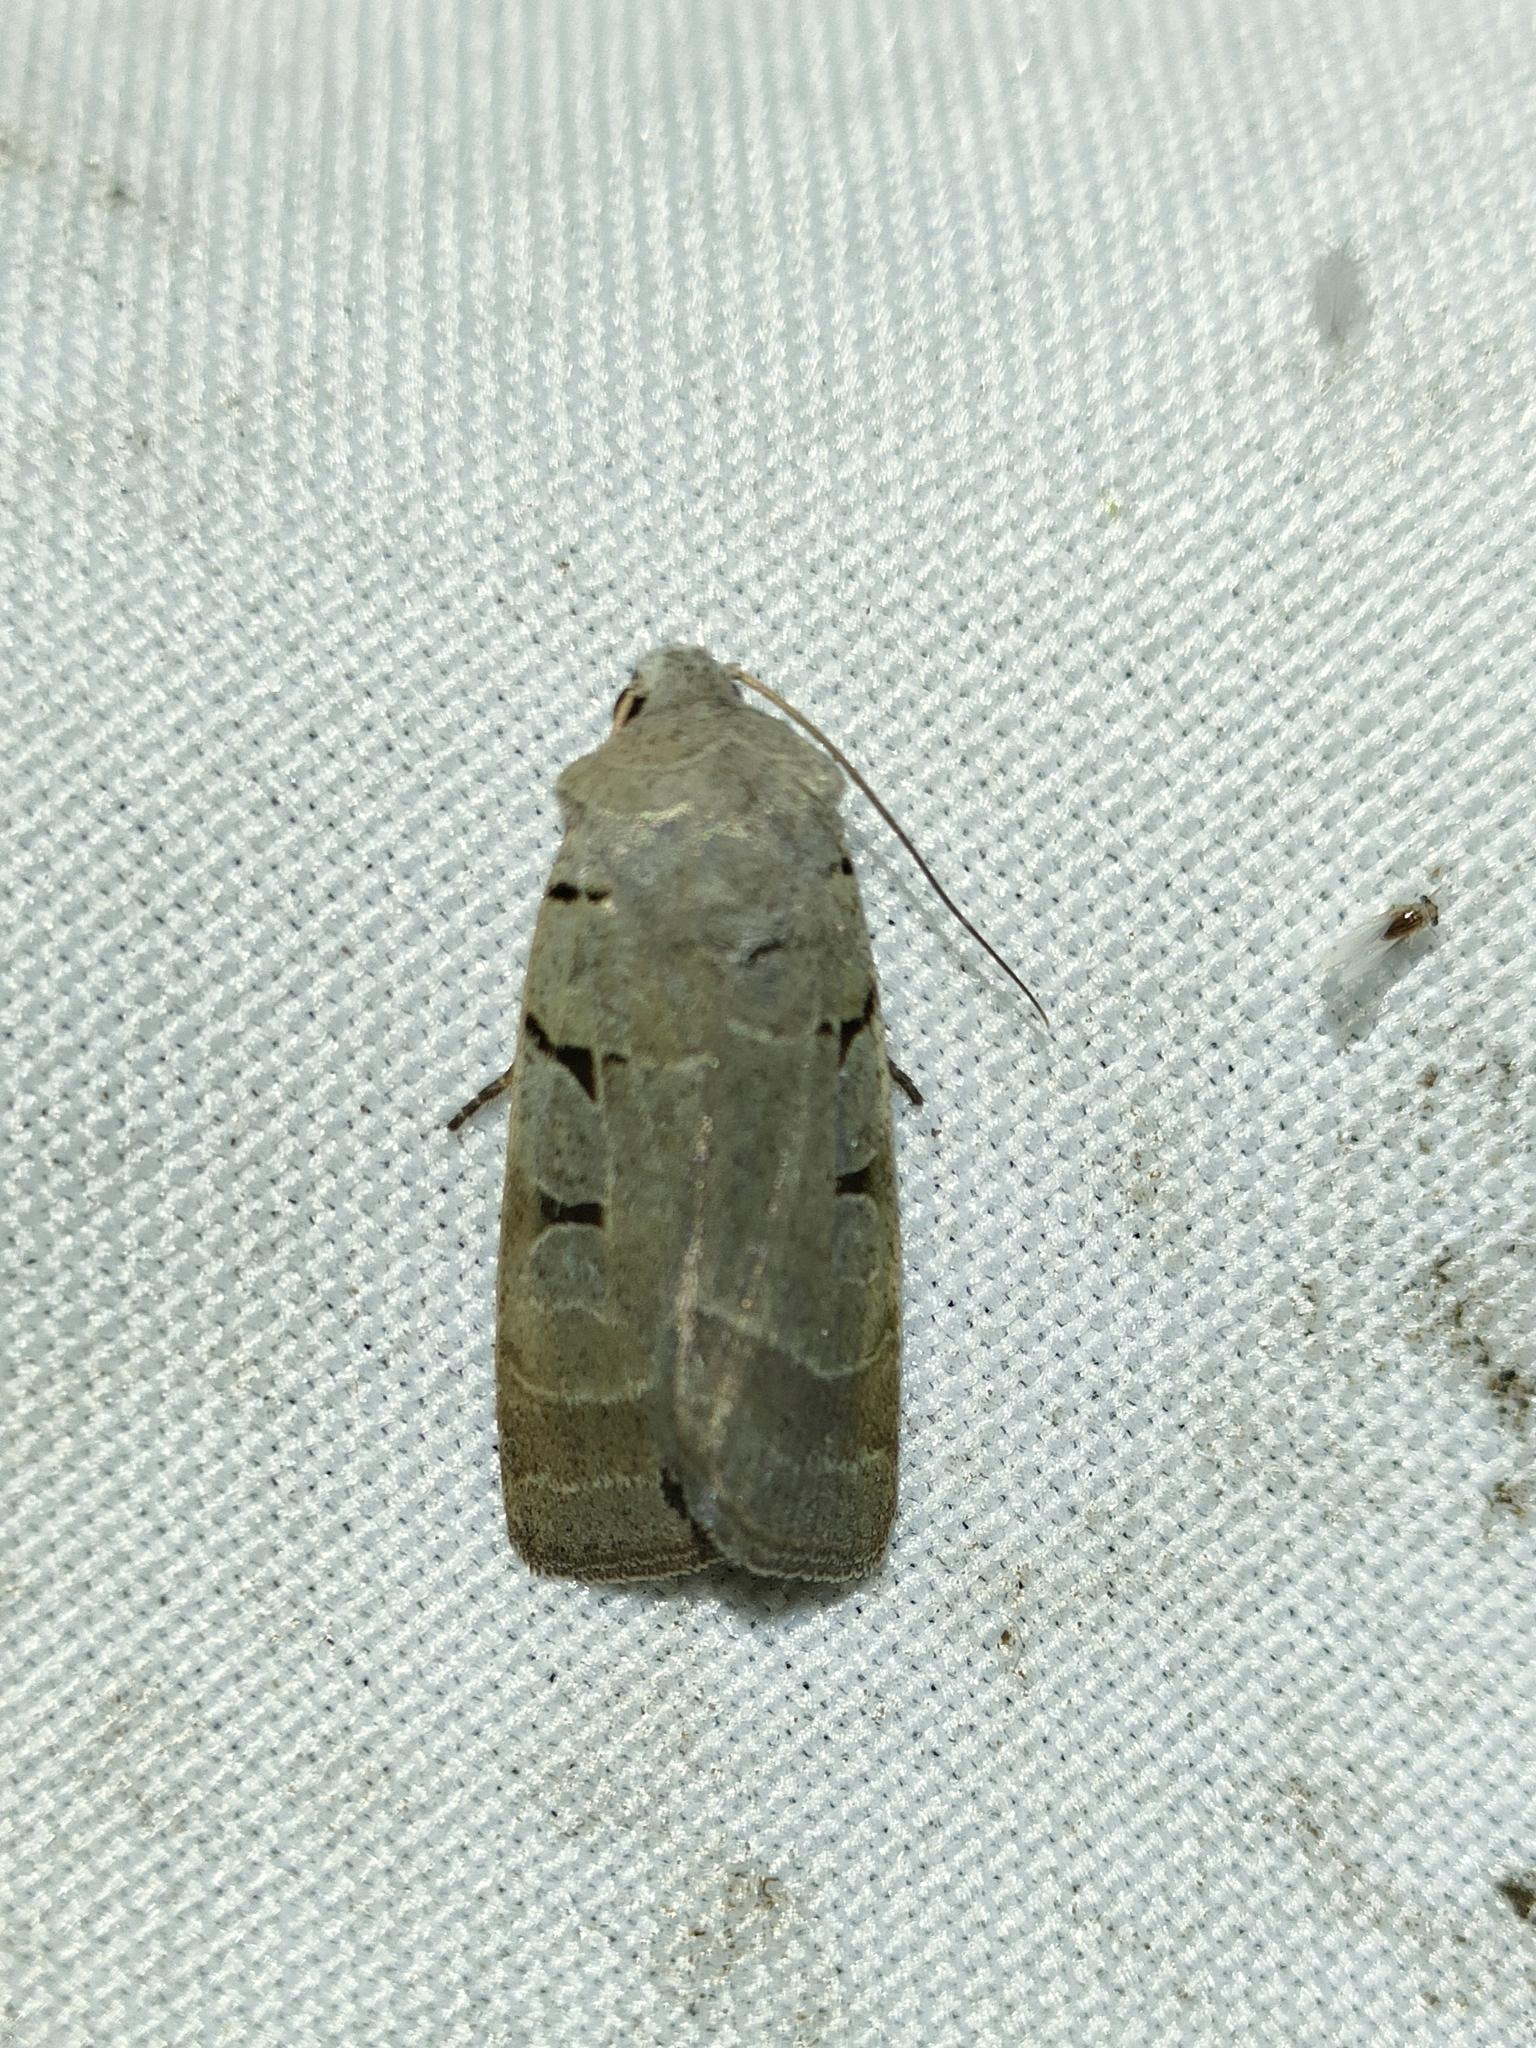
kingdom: Animalia
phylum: Arthropoda
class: Insecta
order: Lepidoptera
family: Noctuidae
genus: Eugnorisma
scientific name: Eugnorisma glareosa
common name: Autumnal rustic
